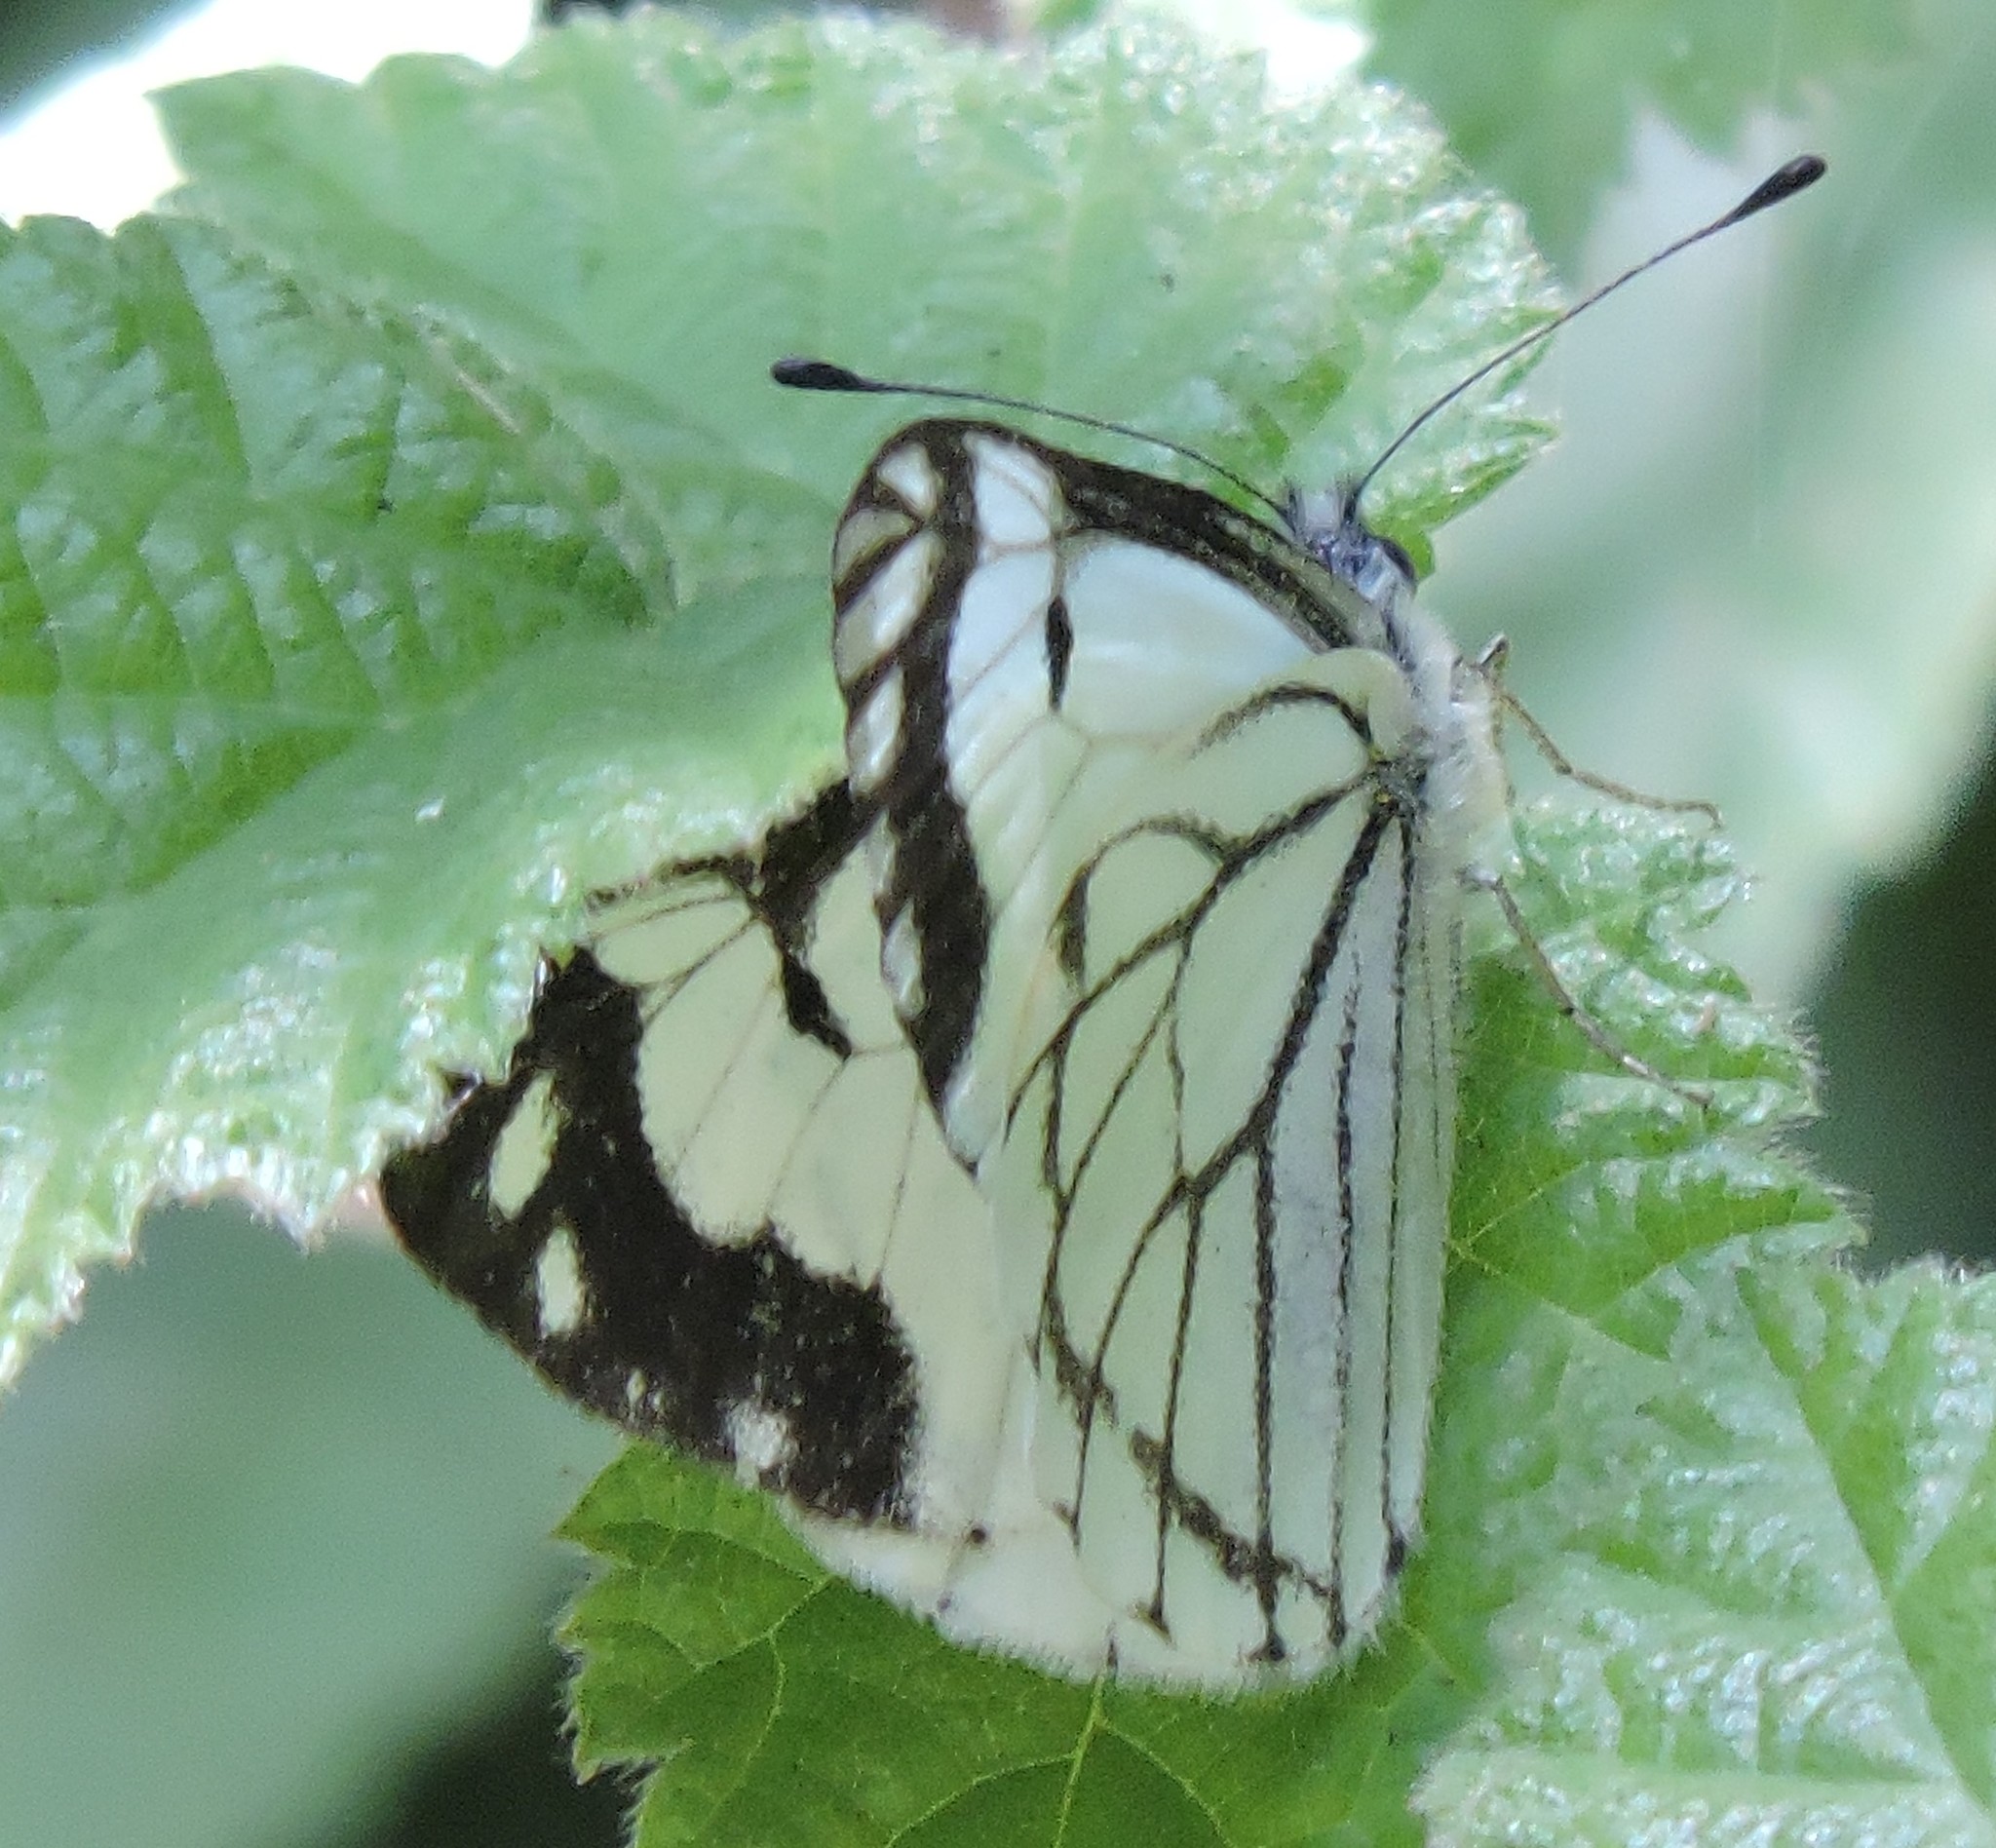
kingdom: Animalia
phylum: Arthropoda
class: Insecta
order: Lepidoptera
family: Pieridae
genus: Neophasia
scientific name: Neophasia menapia
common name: Pine white
